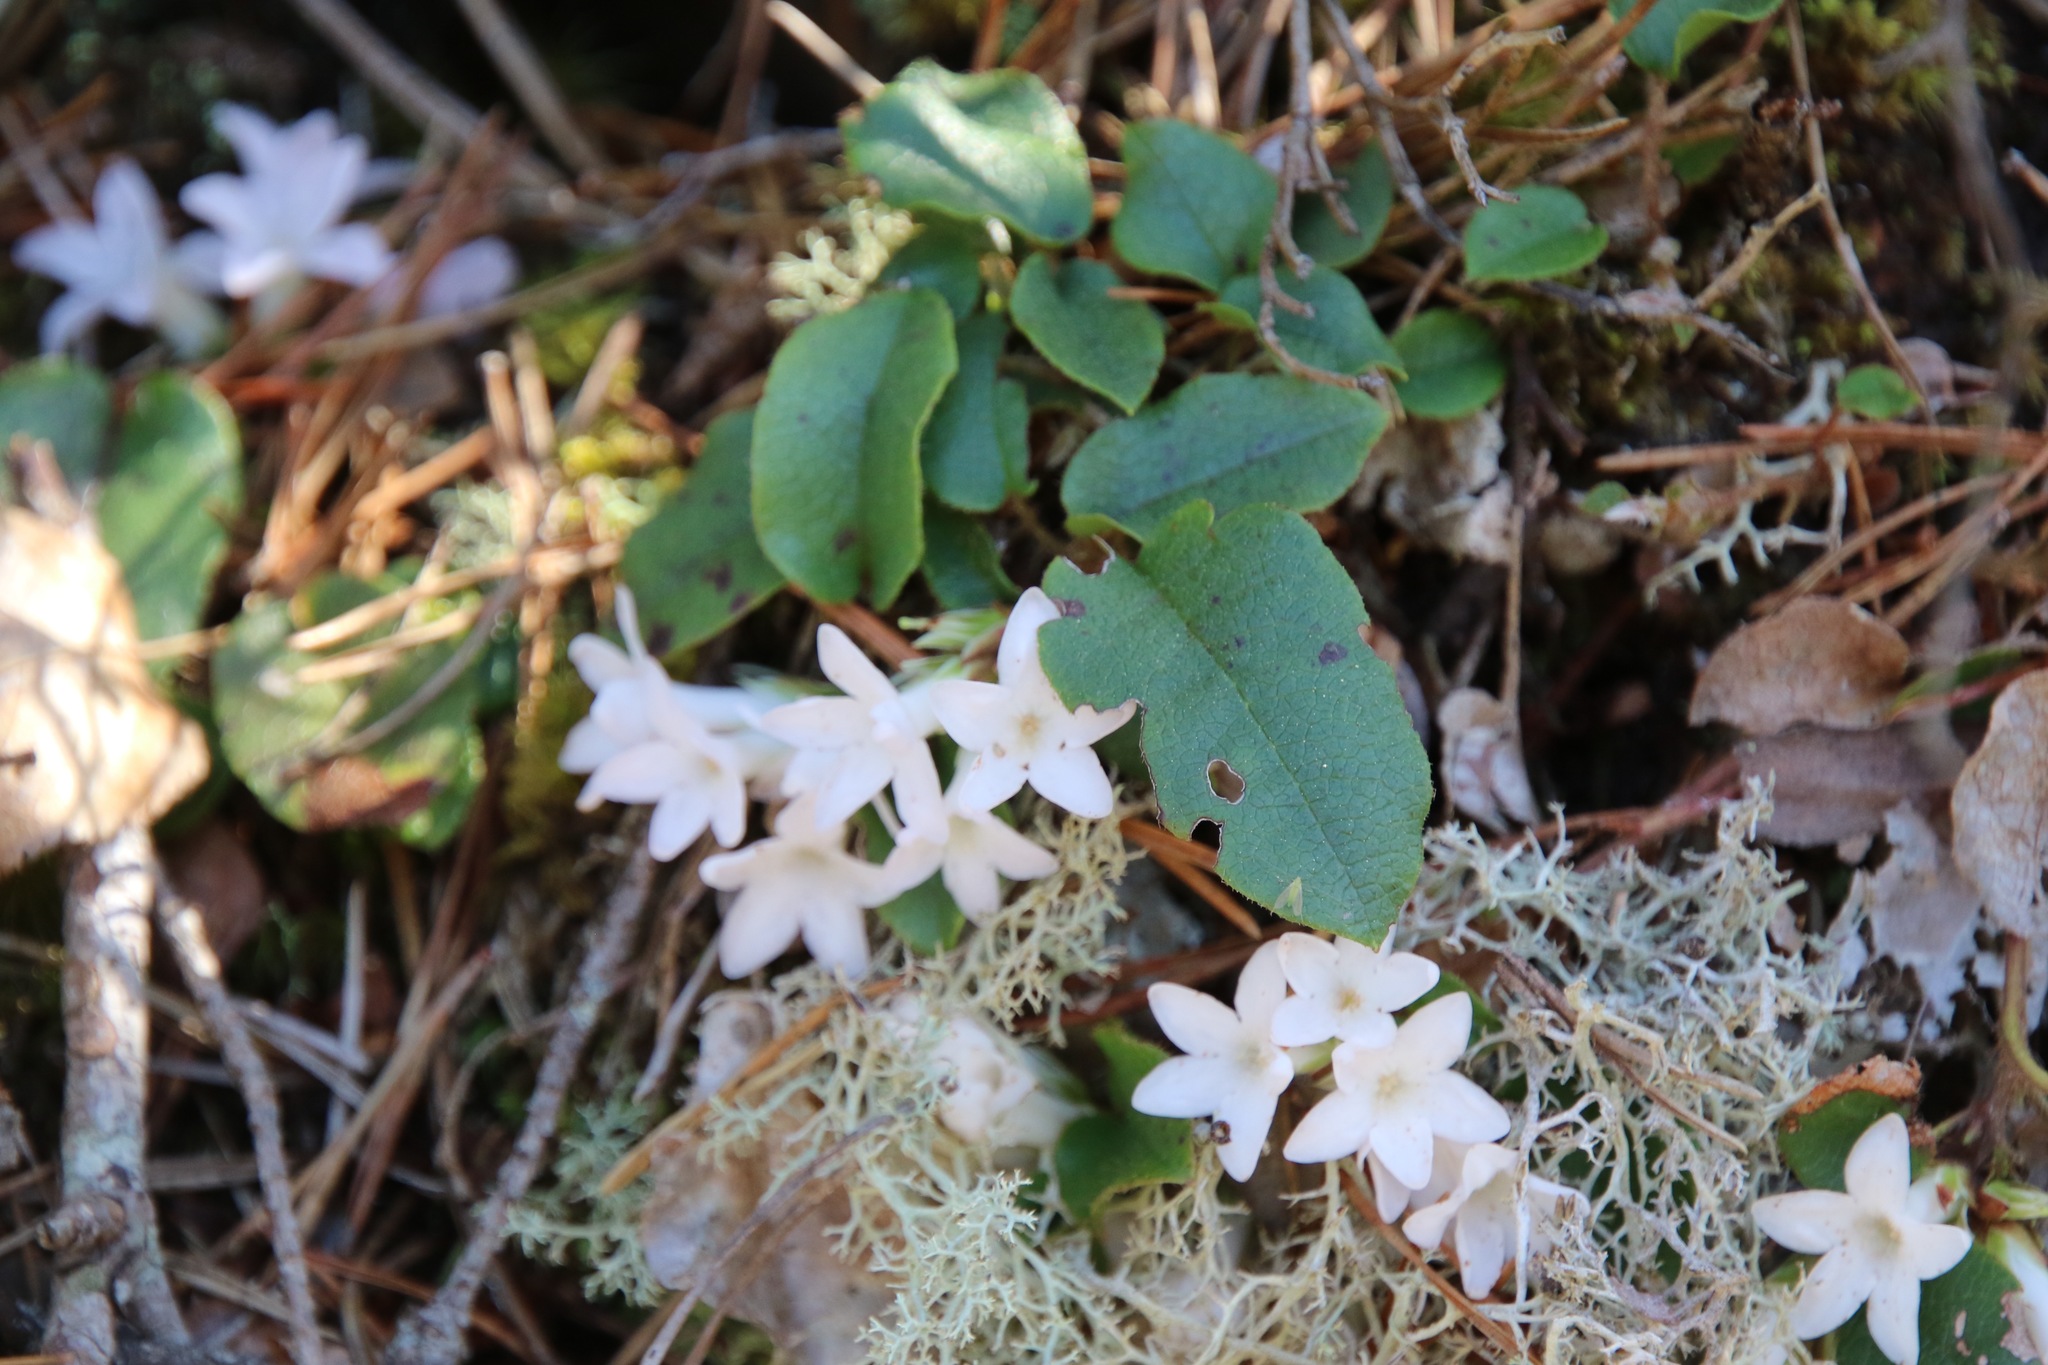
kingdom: Plantae
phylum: Tracheophyta
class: Magnoliopsida
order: Ericales
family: Ericaceae
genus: Epigaea
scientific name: Epigaea repens
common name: Gravelroot
